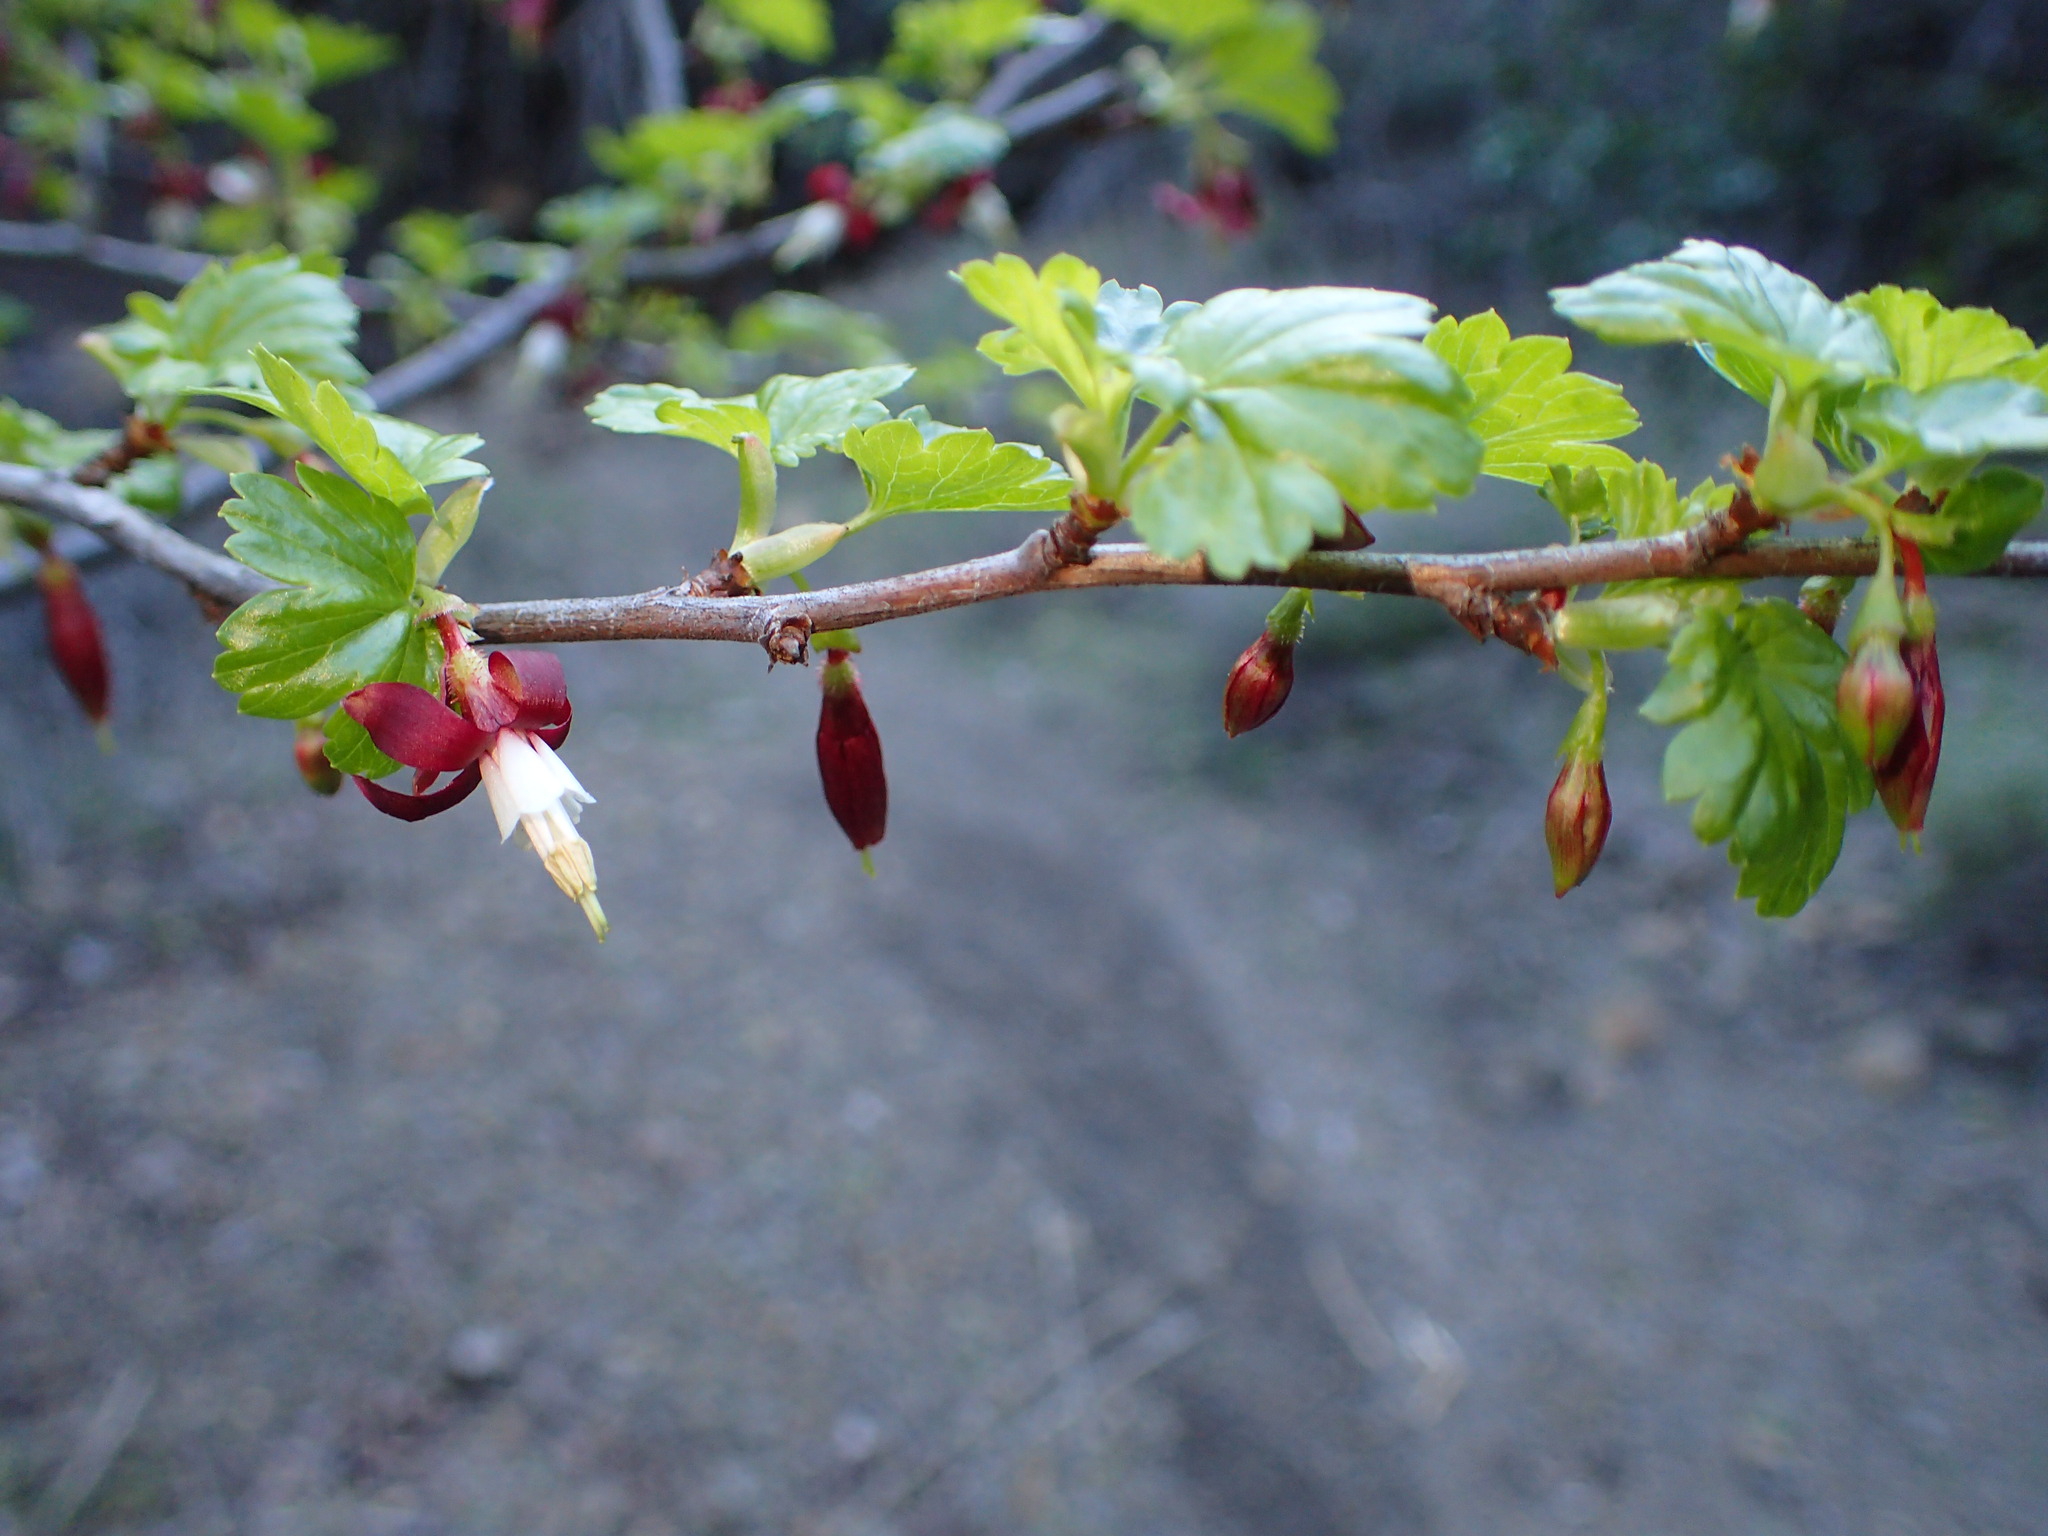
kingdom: Plantae
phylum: Tracheophyta
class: Magnoliopsida
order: Saxifragales
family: Grossulariaceae
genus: Ribes
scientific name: Ribes californicum
